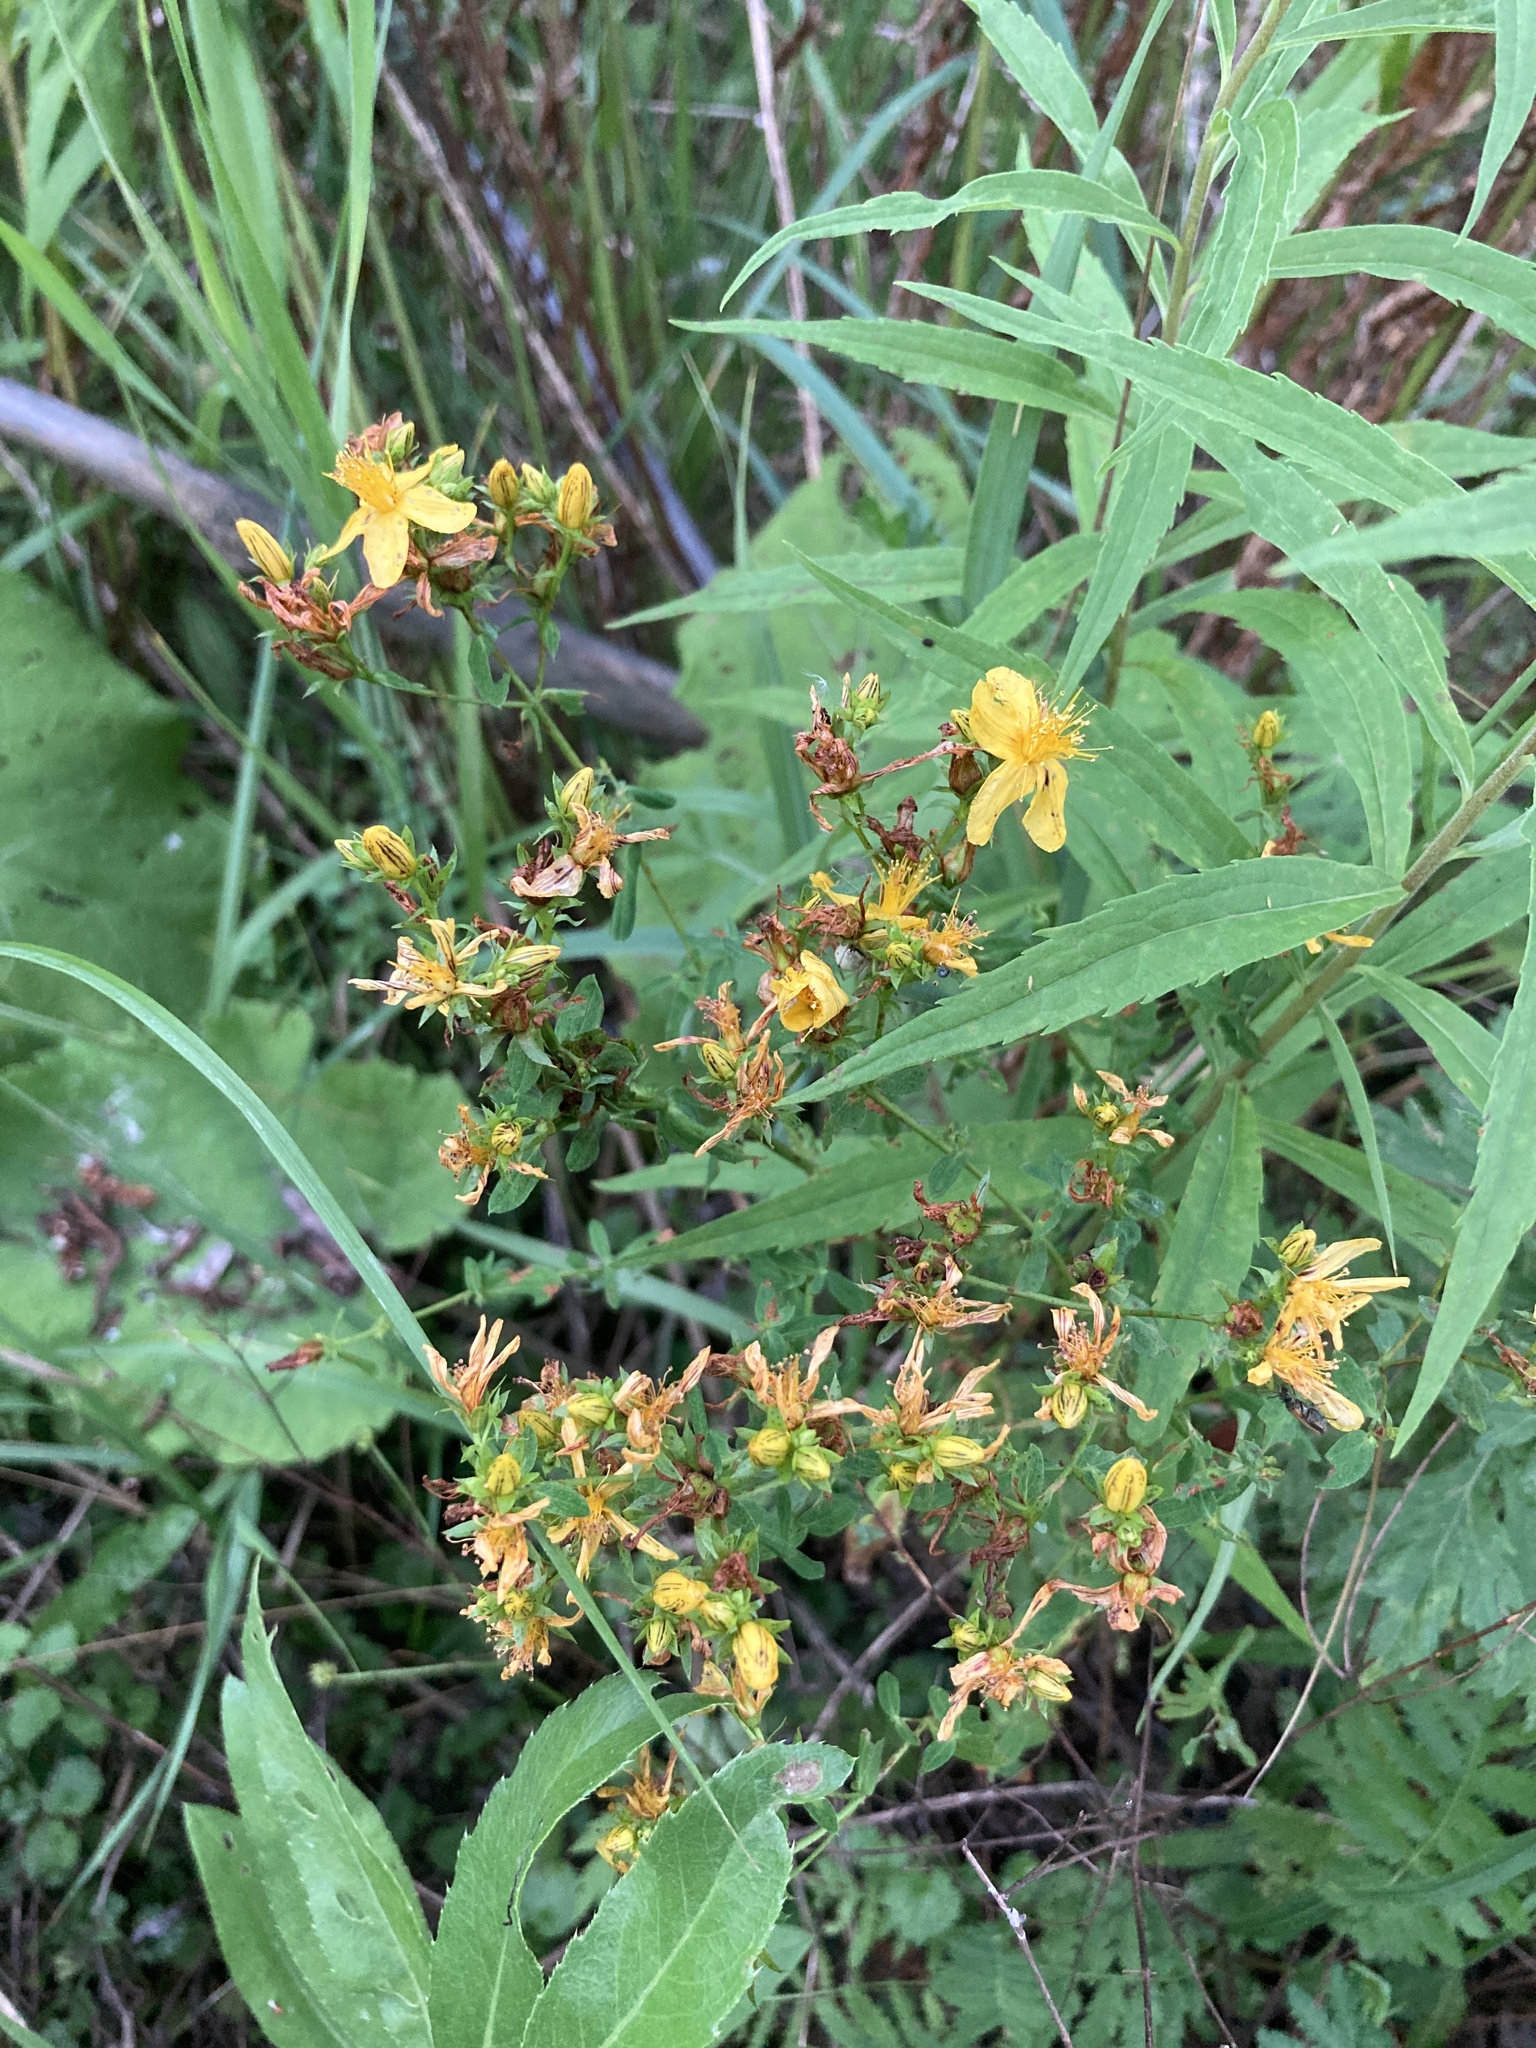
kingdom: Plantae
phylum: Tracheophyta
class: Magnoliopsida
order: Malpighiales
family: Hypericaceae
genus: Hypericum
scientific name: Hypericum perforatum
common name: Common st. johnswort
